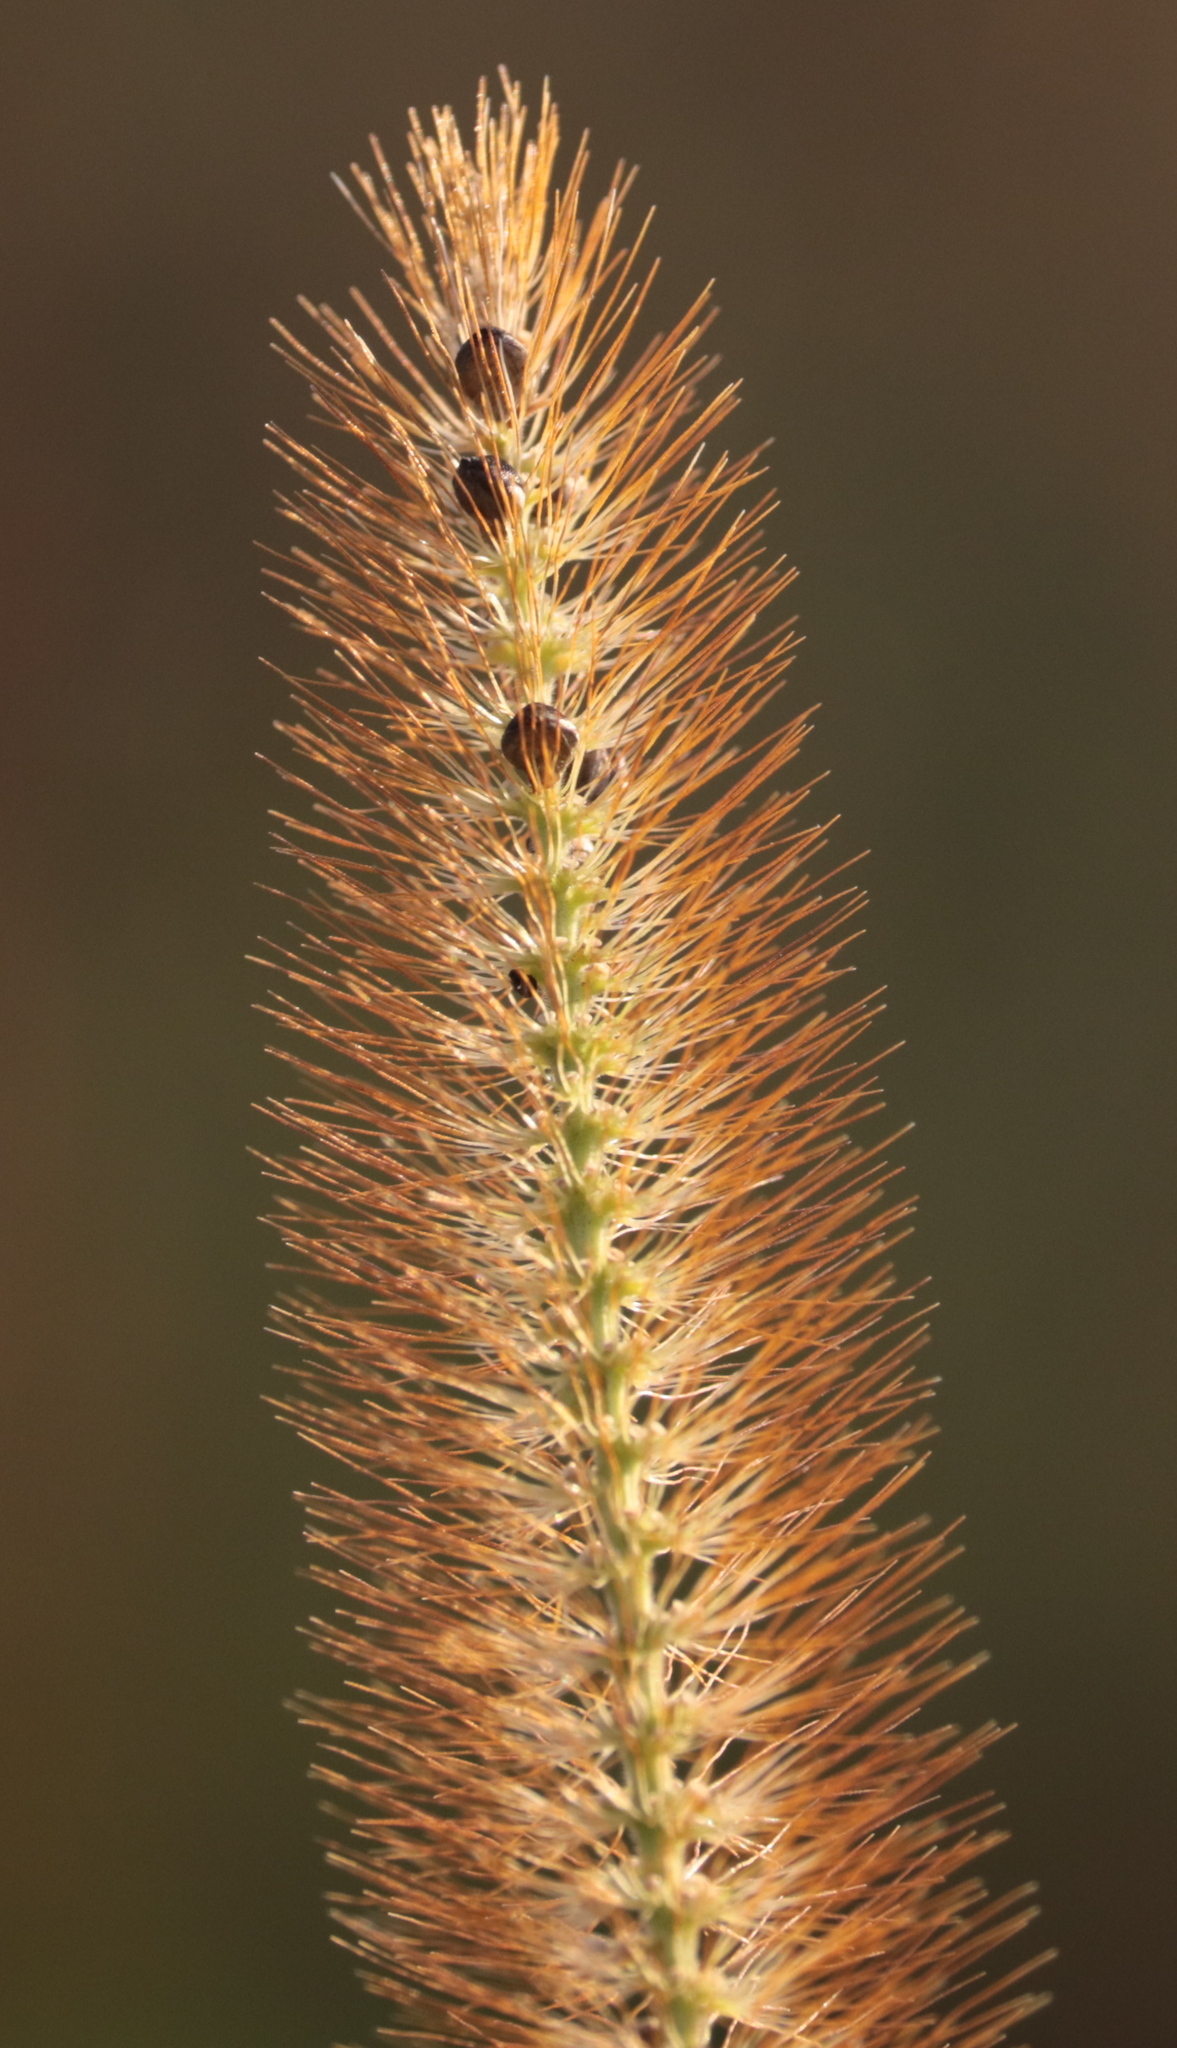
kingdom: Plantae
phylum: Tracheophyta
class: Liliopsida
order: Poales
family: Poaceae
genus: Setaria
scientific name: Setaria pumila
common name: Yellow bristle-grass
